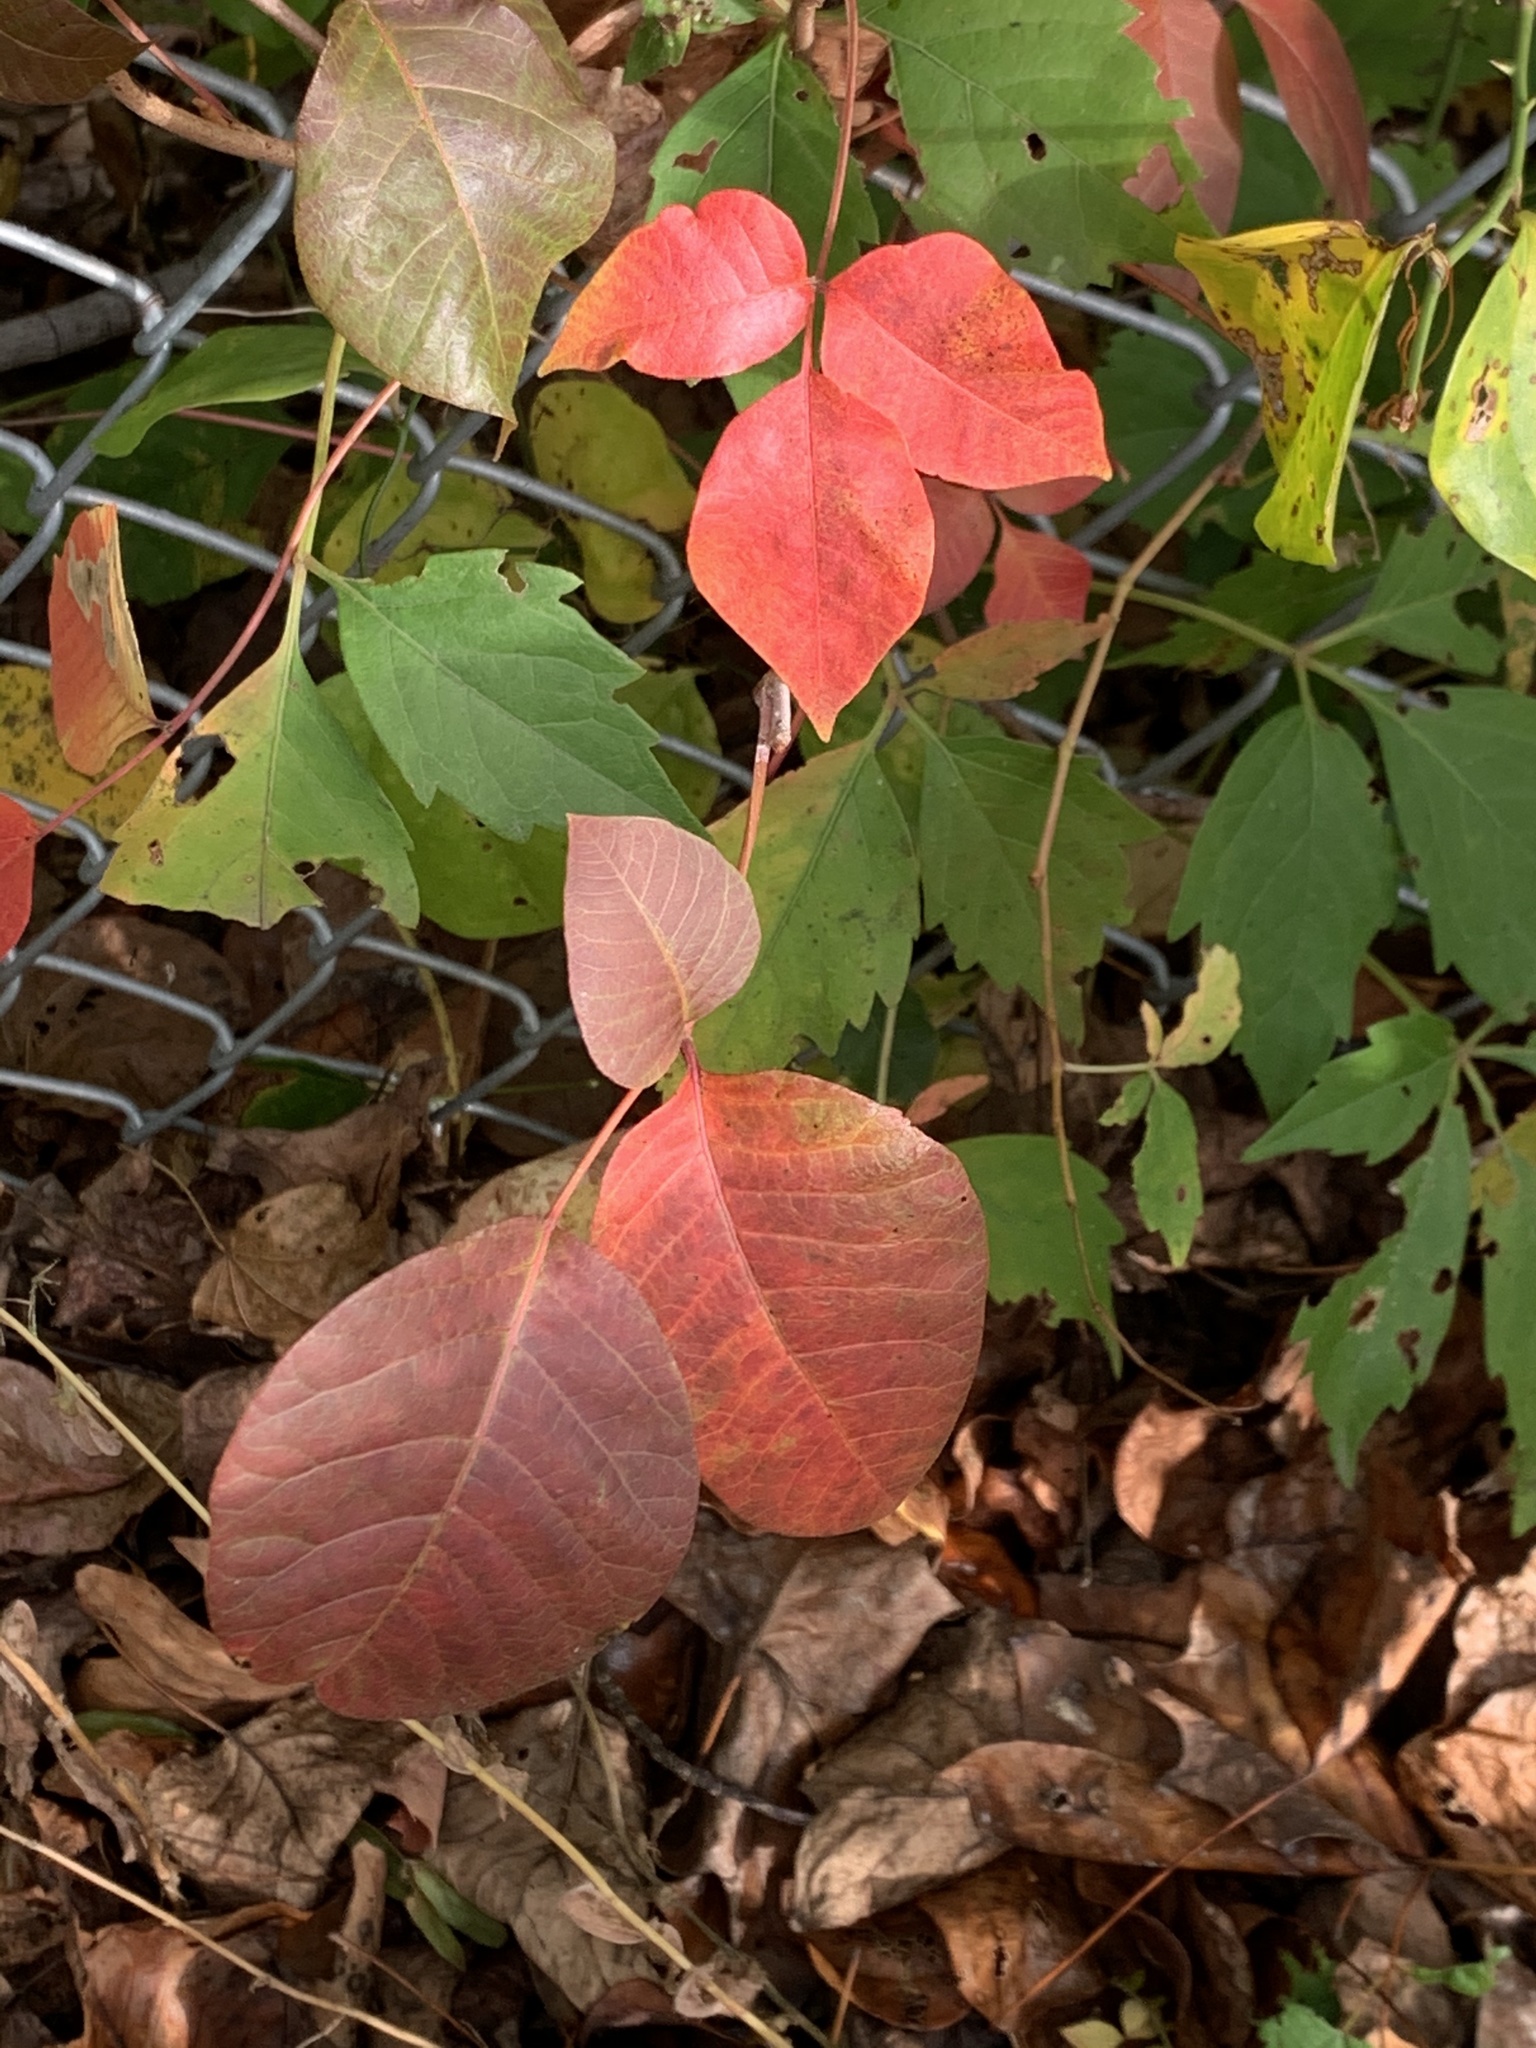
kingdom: Plantae
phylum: Tracheophyta
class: Magnoliopsida
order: Sapindales
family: Anacardiaceae
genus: Toxicodendron
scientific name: Toxicodendron radicans
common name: Poison ivy
